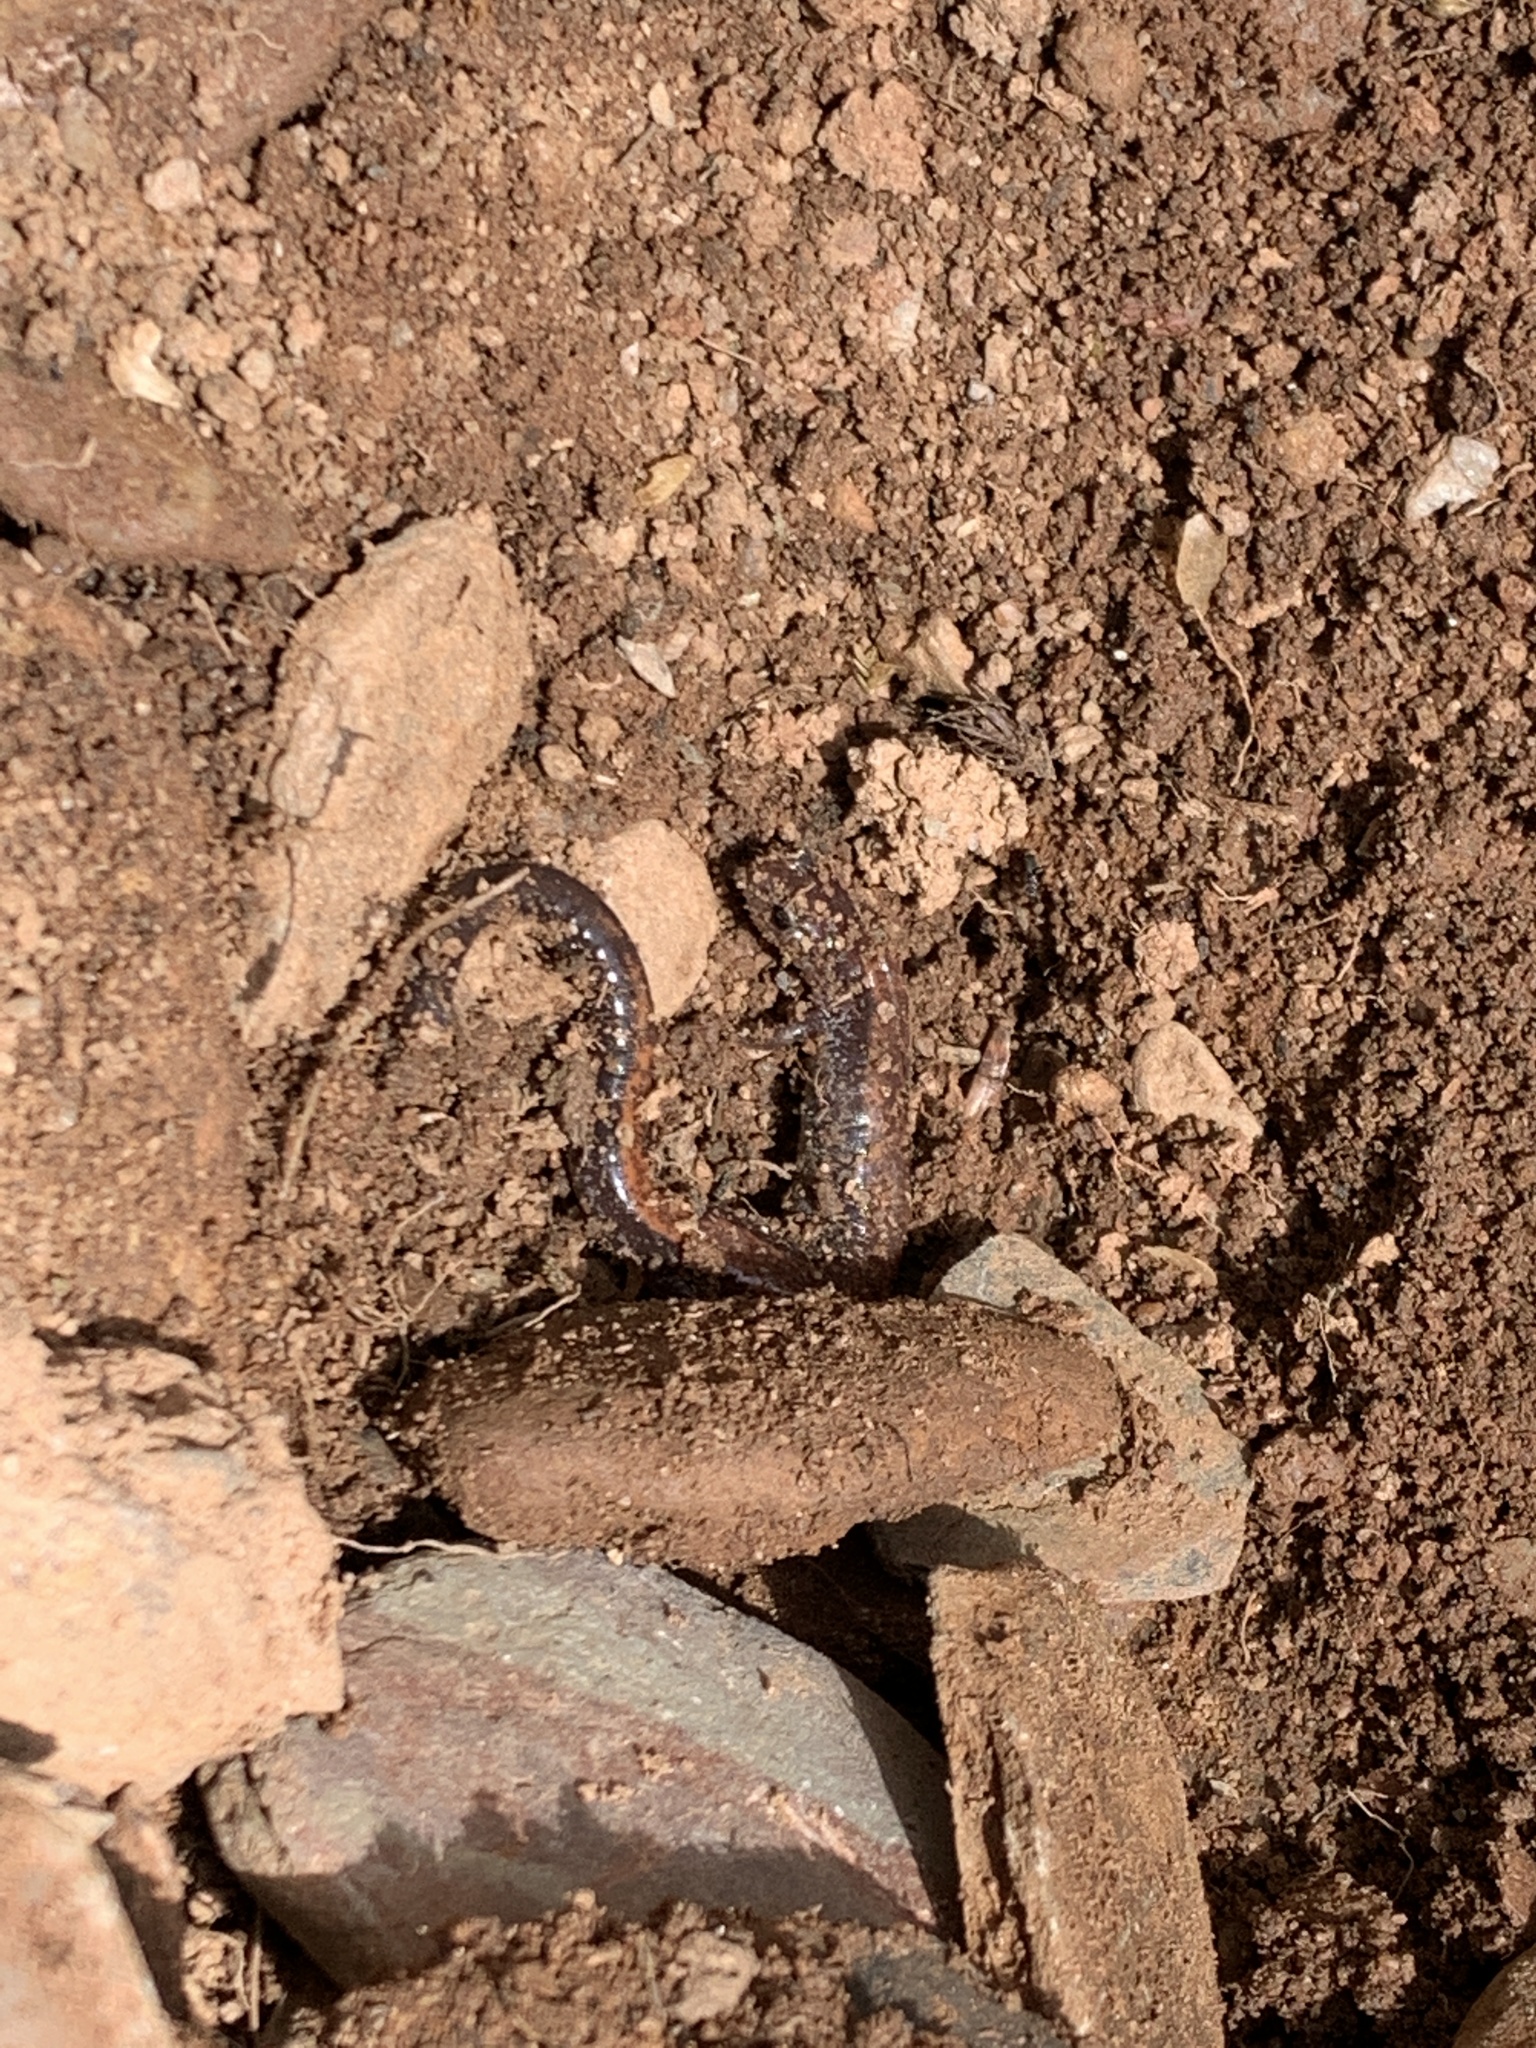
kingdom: Animalia
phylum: Chordata
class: Amphibia
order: Caudata
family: Plethodontidae
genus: Plethodon
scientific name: Plethodon cinereus
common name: Redback salamander
